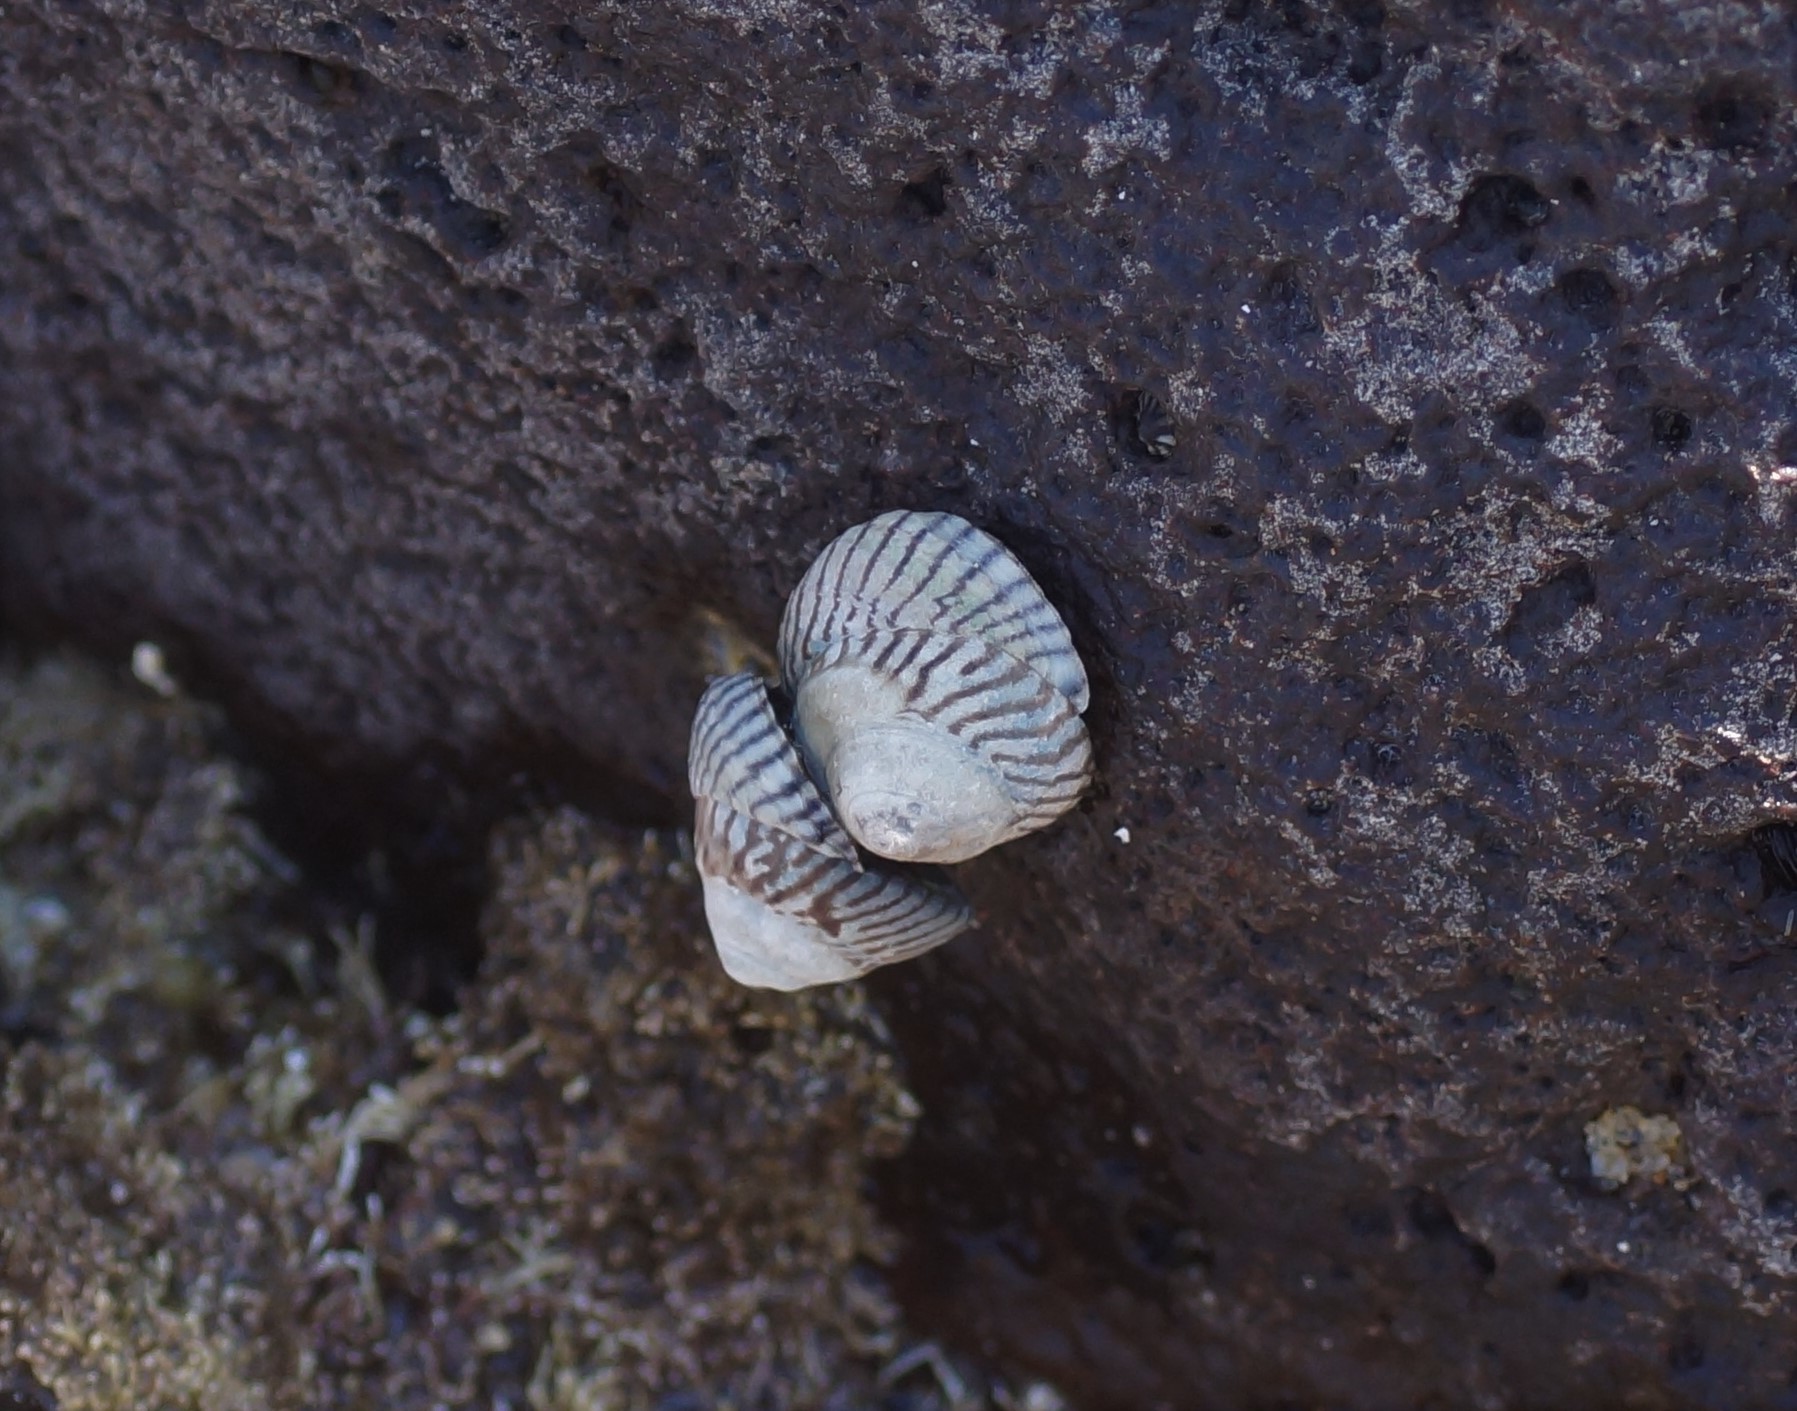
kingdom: Animalia
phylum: Mollusca
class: Gastropoda
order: Littorinimorpha
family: Littorinidae
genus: Bembicium
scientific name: Bembicium nanum
